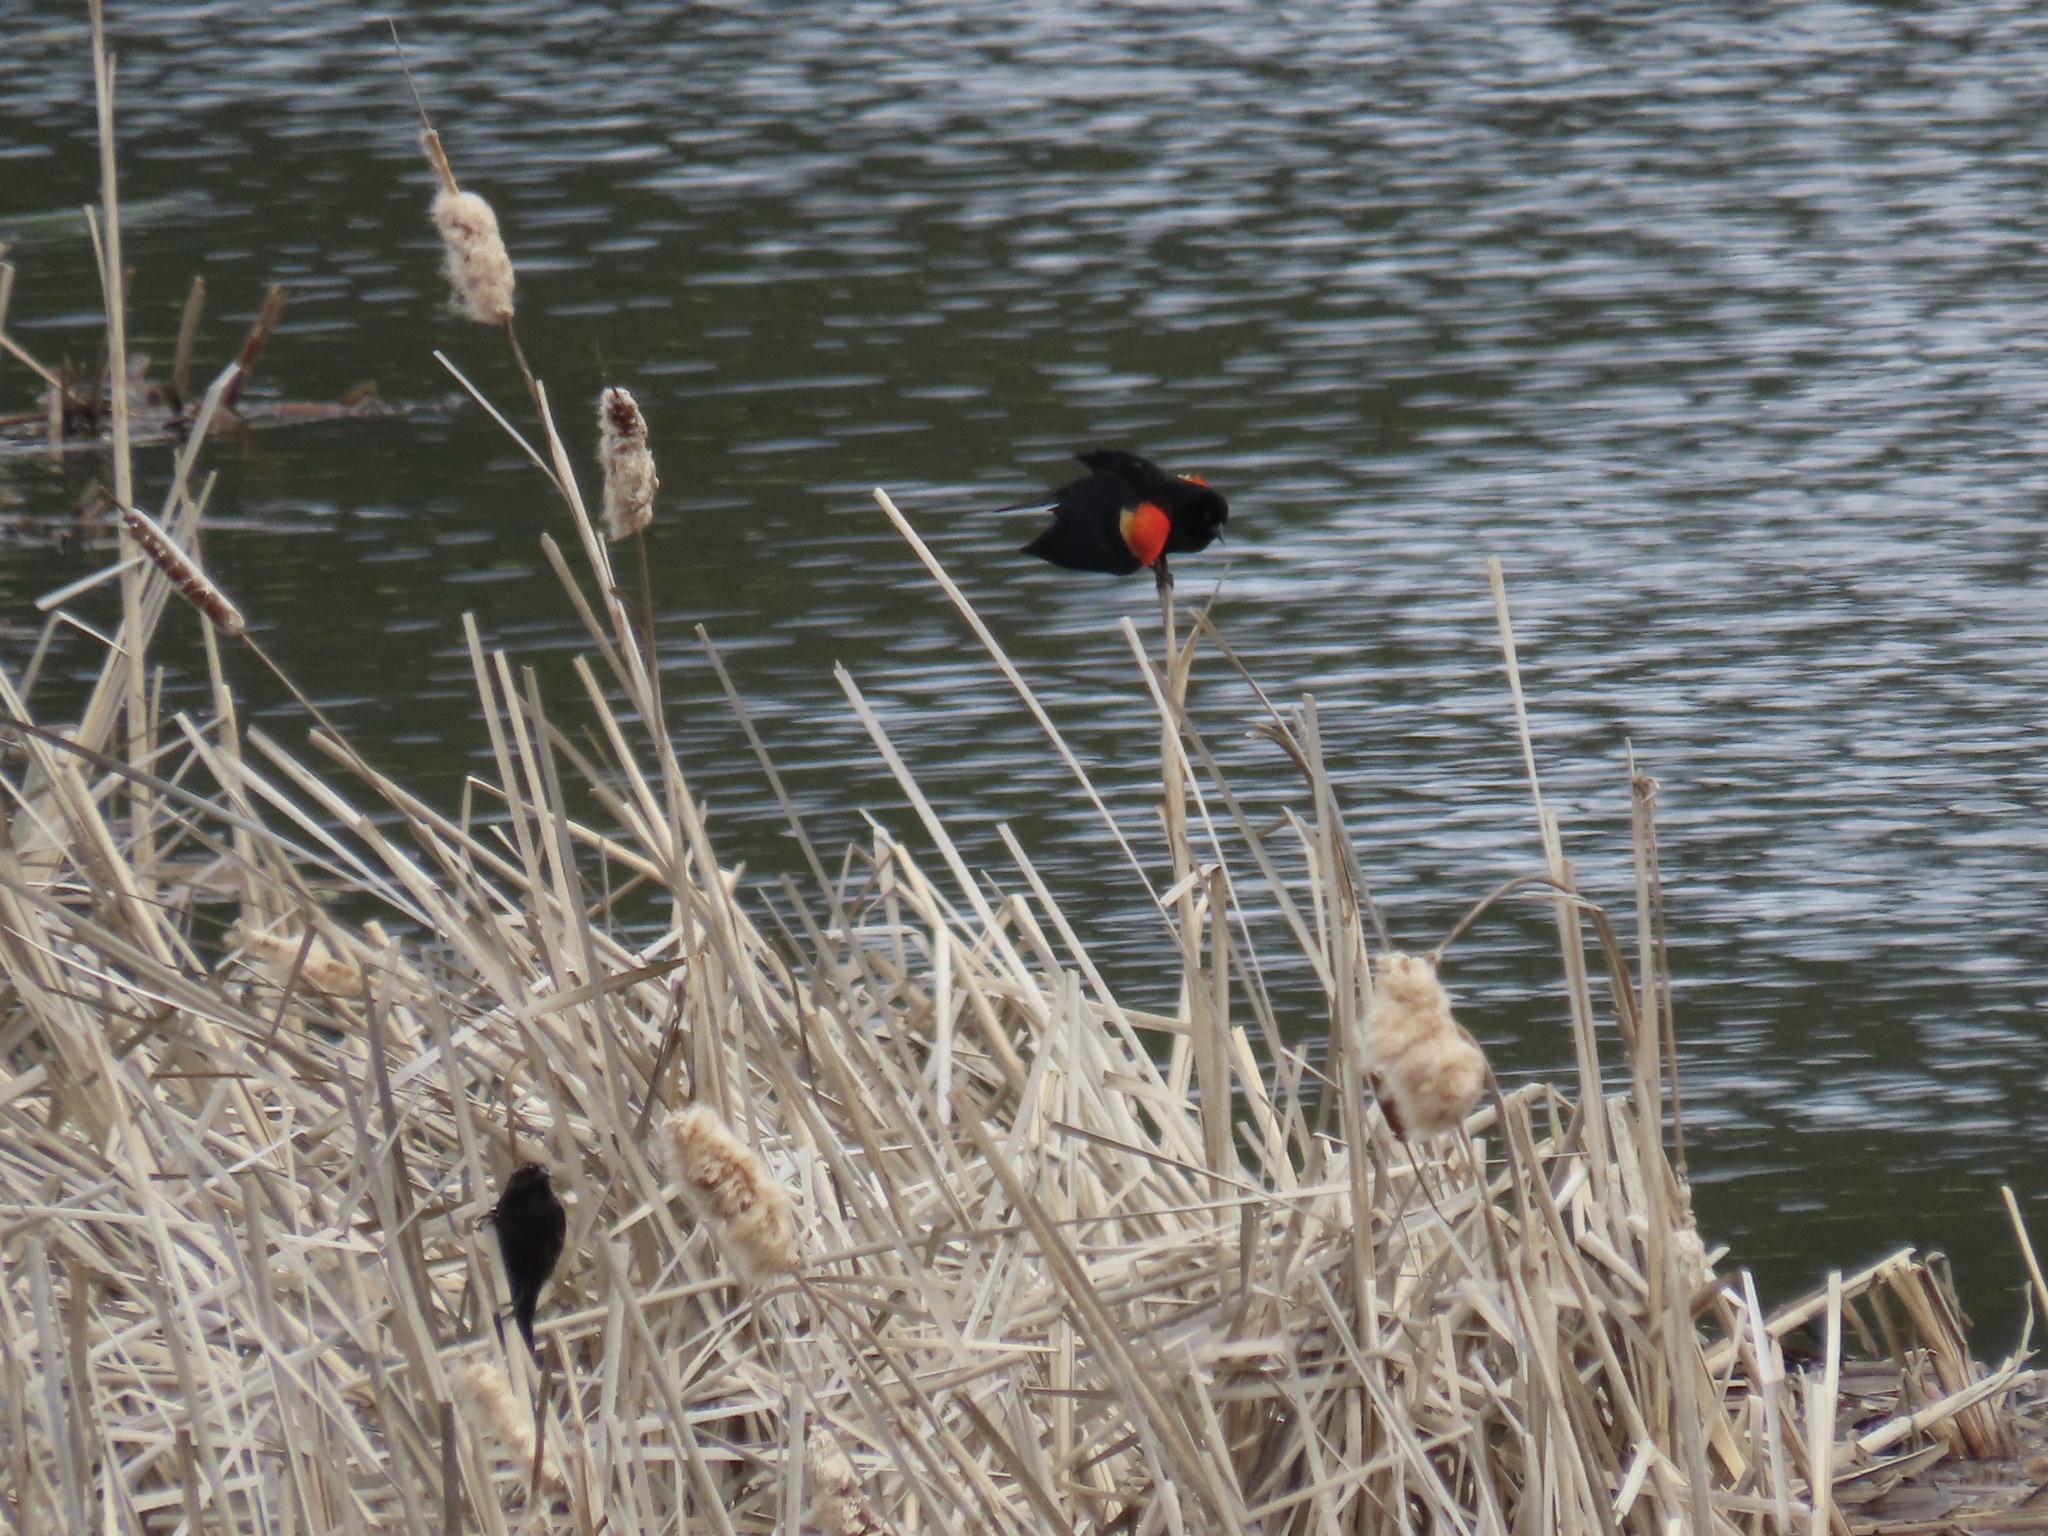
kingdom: Animalia
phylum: Chordata
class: Aves
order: Passeriformes
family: Icteridae
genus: Agelaius
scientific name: Agelaius phoeniceus
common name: Red-winged blackbird
